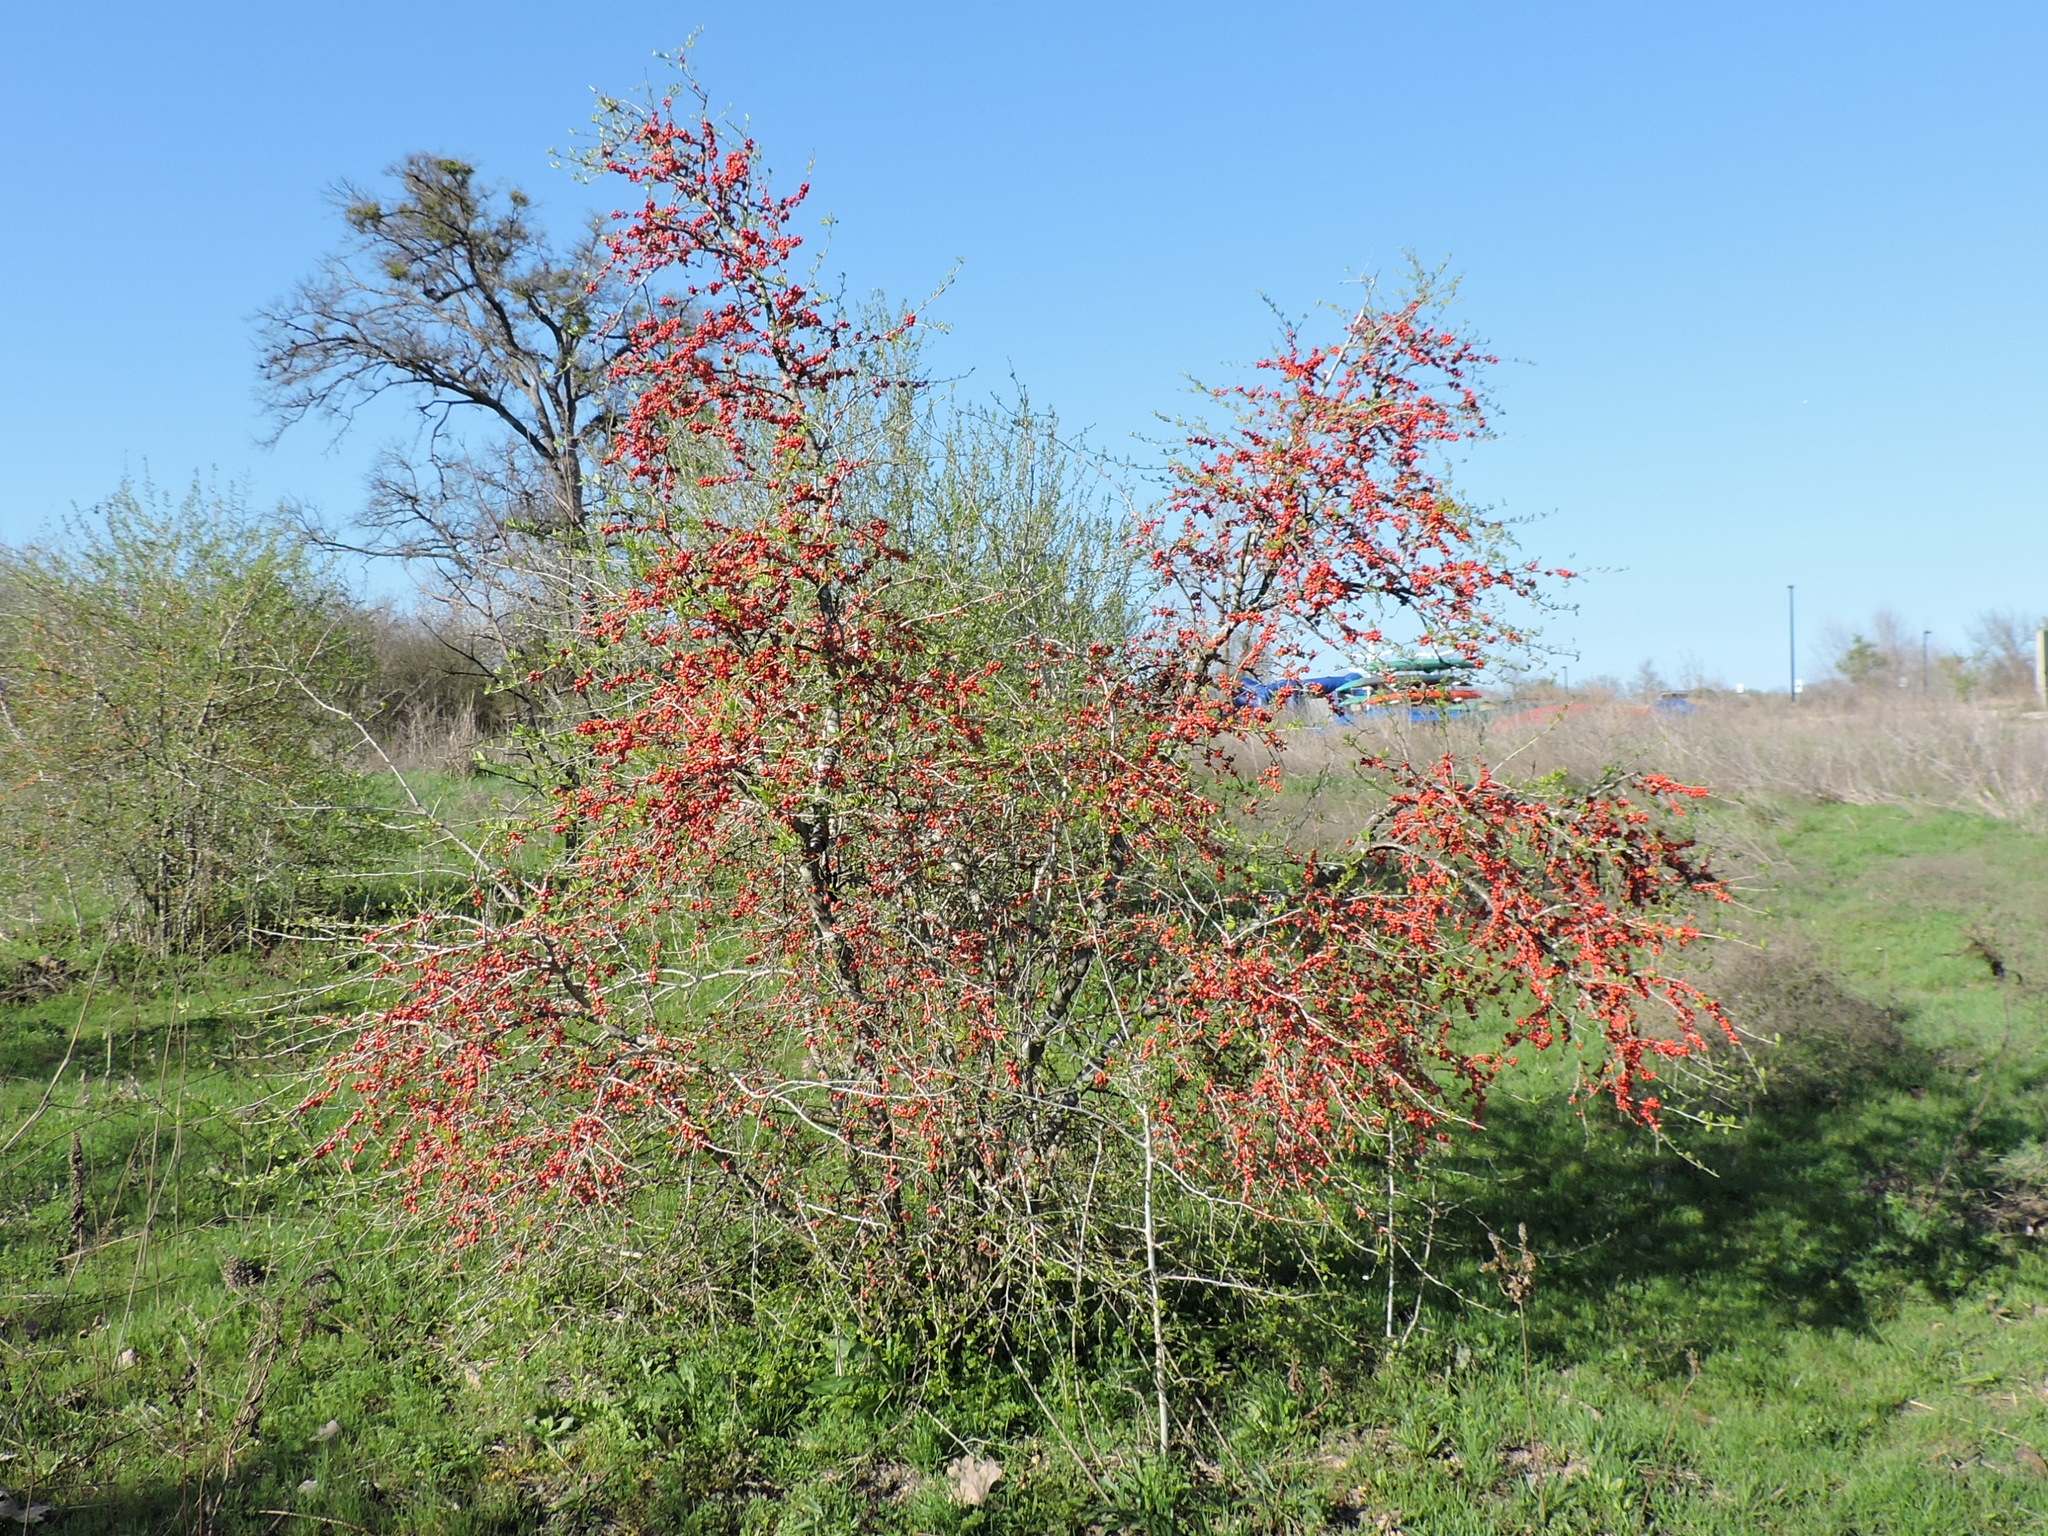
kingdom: Plantae
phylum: Tracheophyta
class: Magnoliopsida
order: Aquifoliales
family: Aquifoliaceae
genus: Ilex
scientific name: Ilex decidua
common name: Possum-haw
